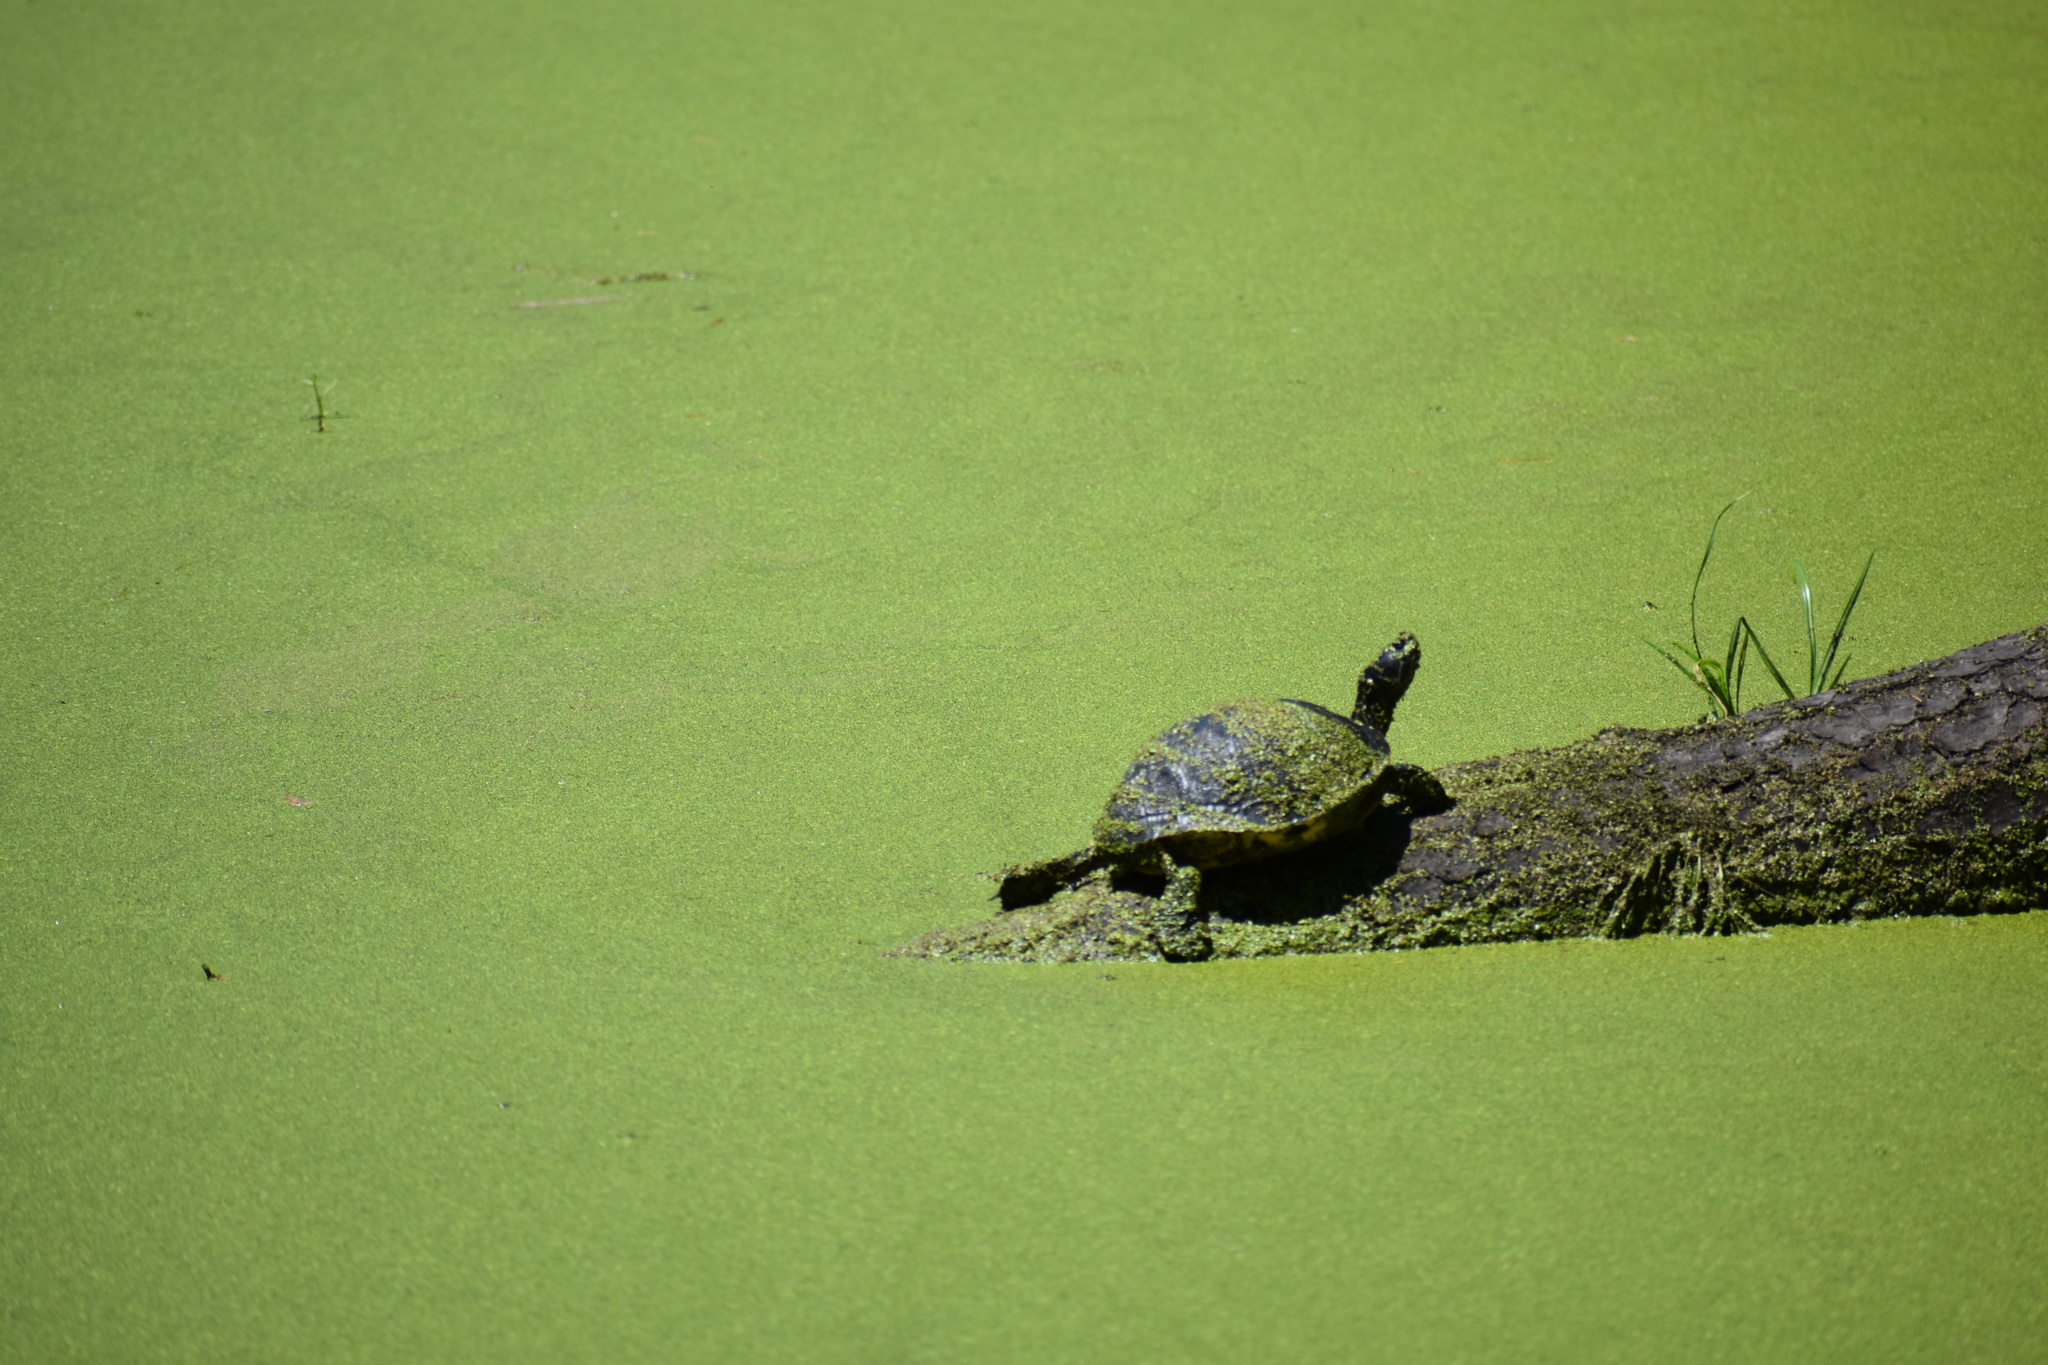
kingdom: Animalia
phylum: Chordata
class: Testudines
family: Emydidae
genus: Pseudemys
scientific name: Pseudemys concinna
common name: Eastern river cooter
